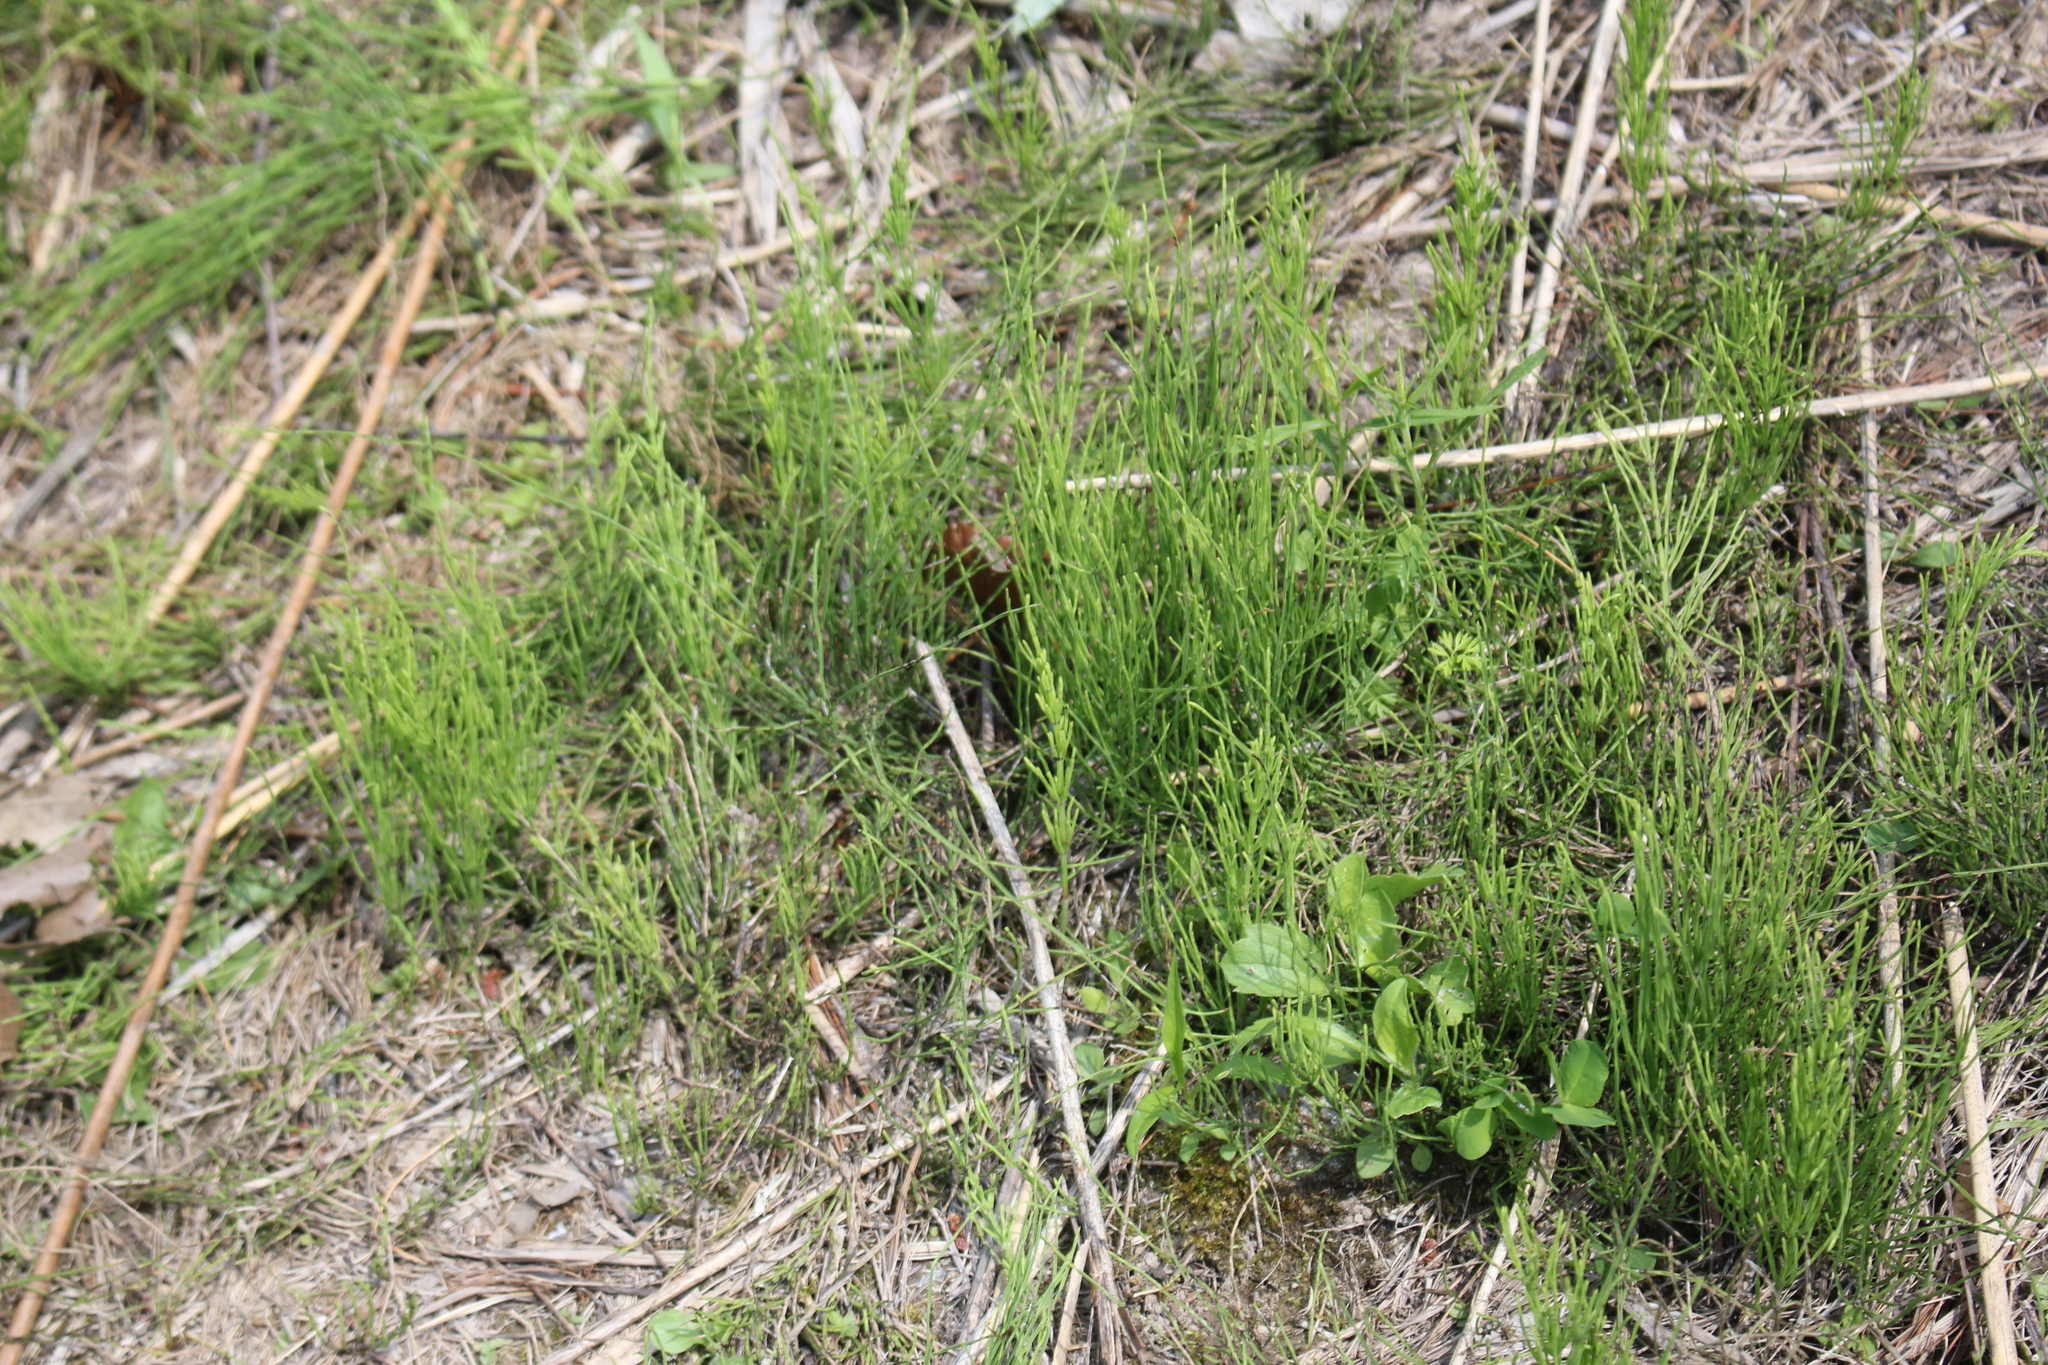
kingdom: Plantae
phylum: Tracheophyta
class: Polypodiopsida
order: Equisetales
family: Equisetaceae
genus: Equisetum
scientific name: Equisetum arvense
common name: Field horsetail
